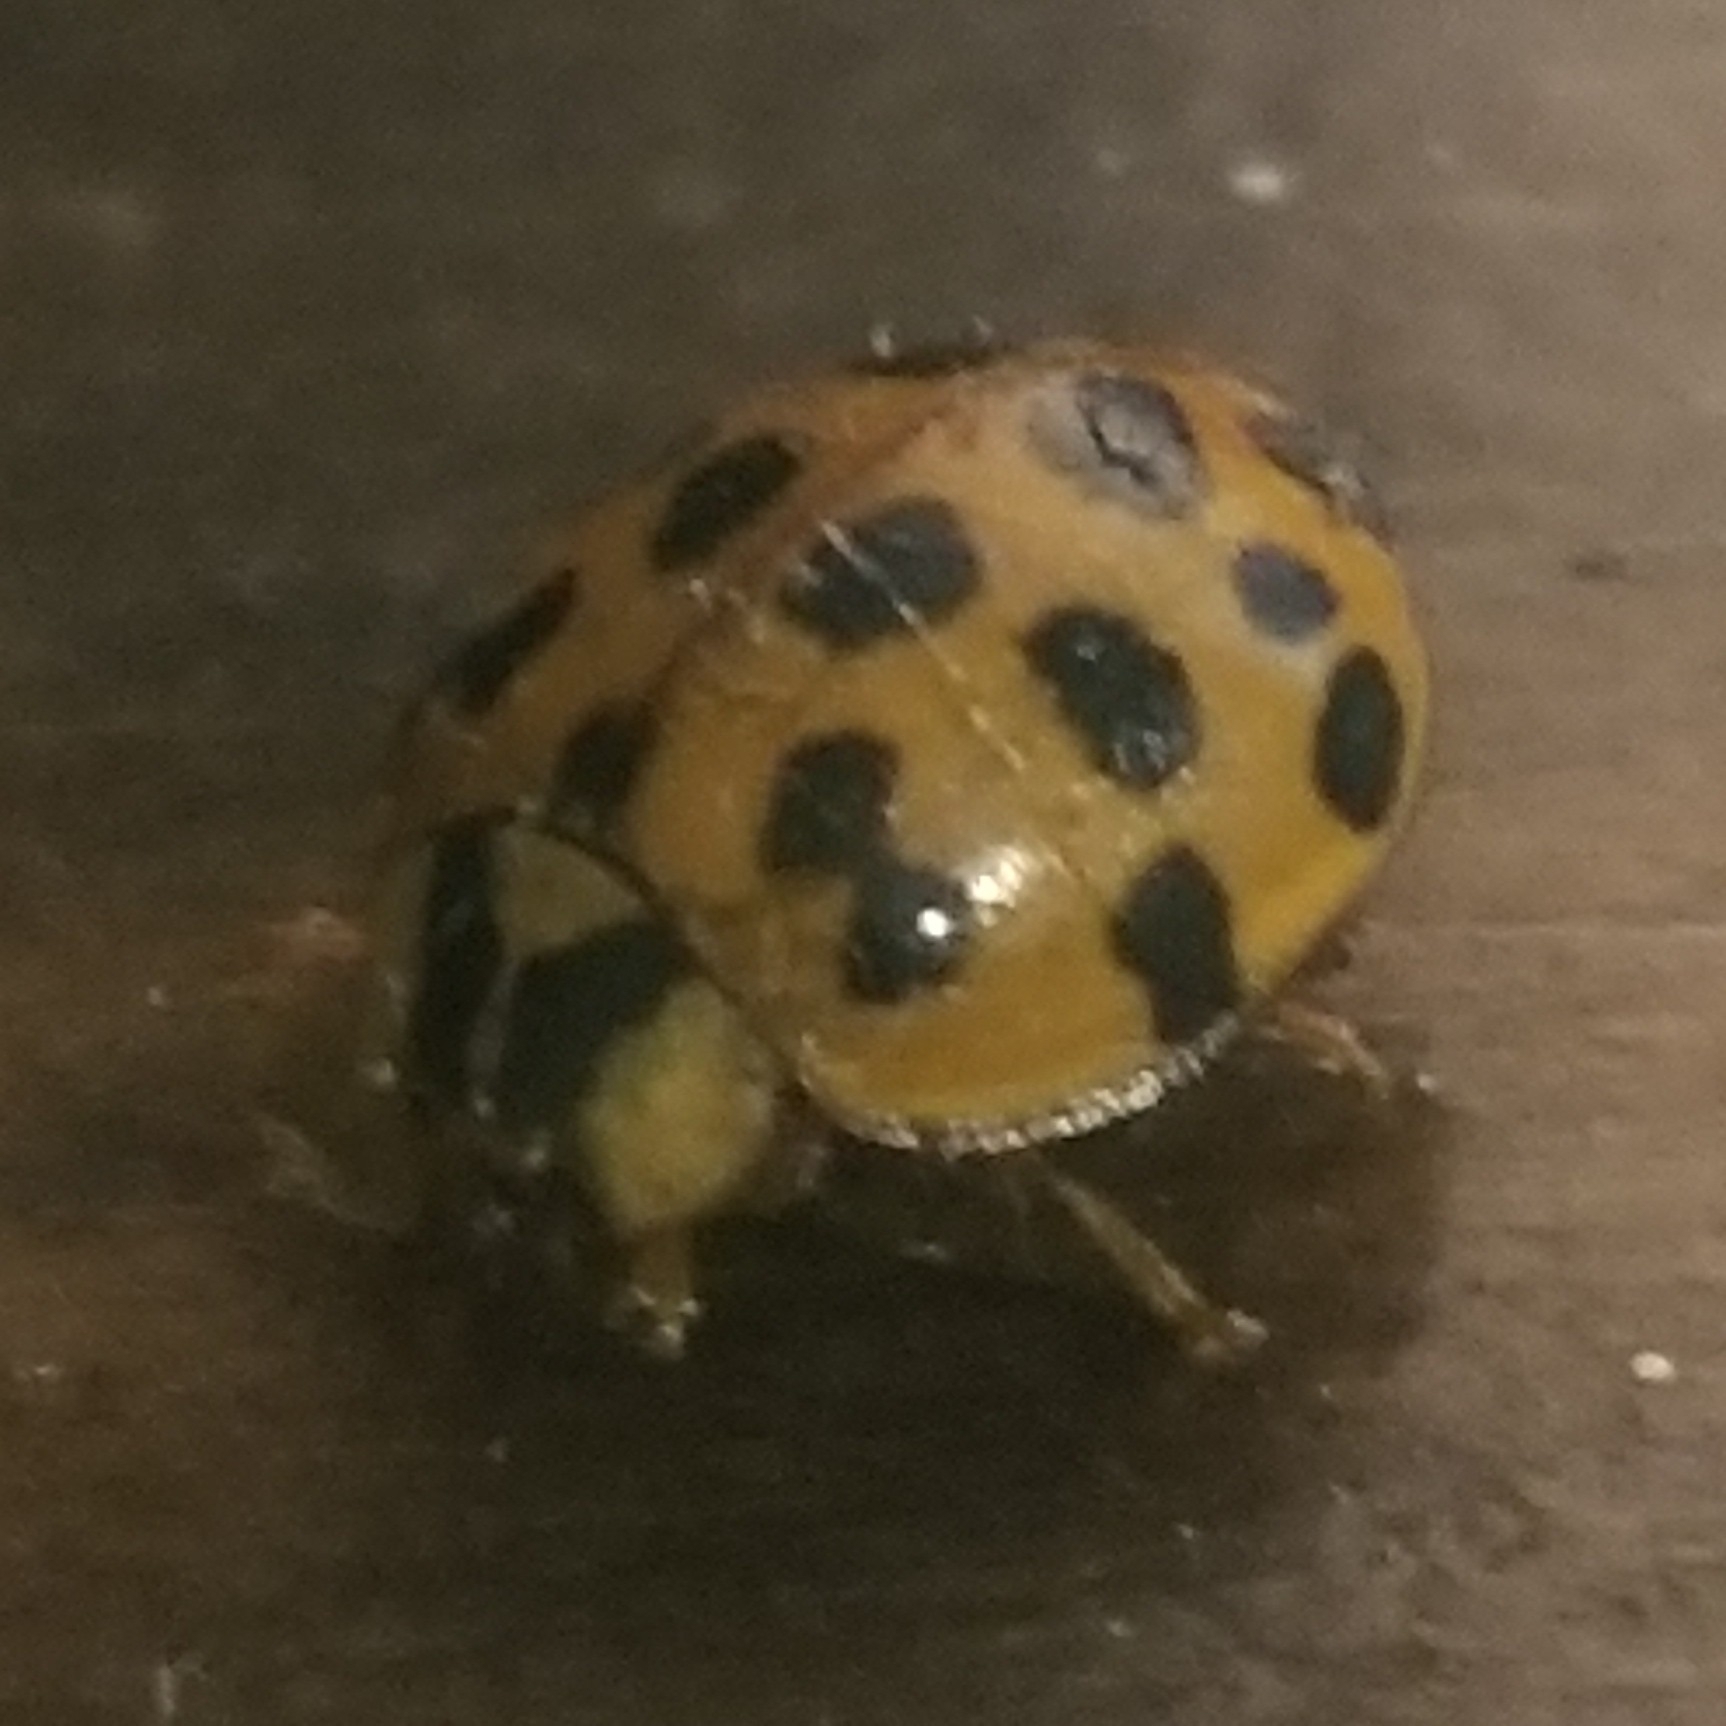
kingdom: Animalia
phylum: Arthropoda
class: Insecta
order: Coleoptera
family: Coccinellidae
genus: Harmonia
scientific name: Harmonia axyridis
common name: Harlequin ladybird
